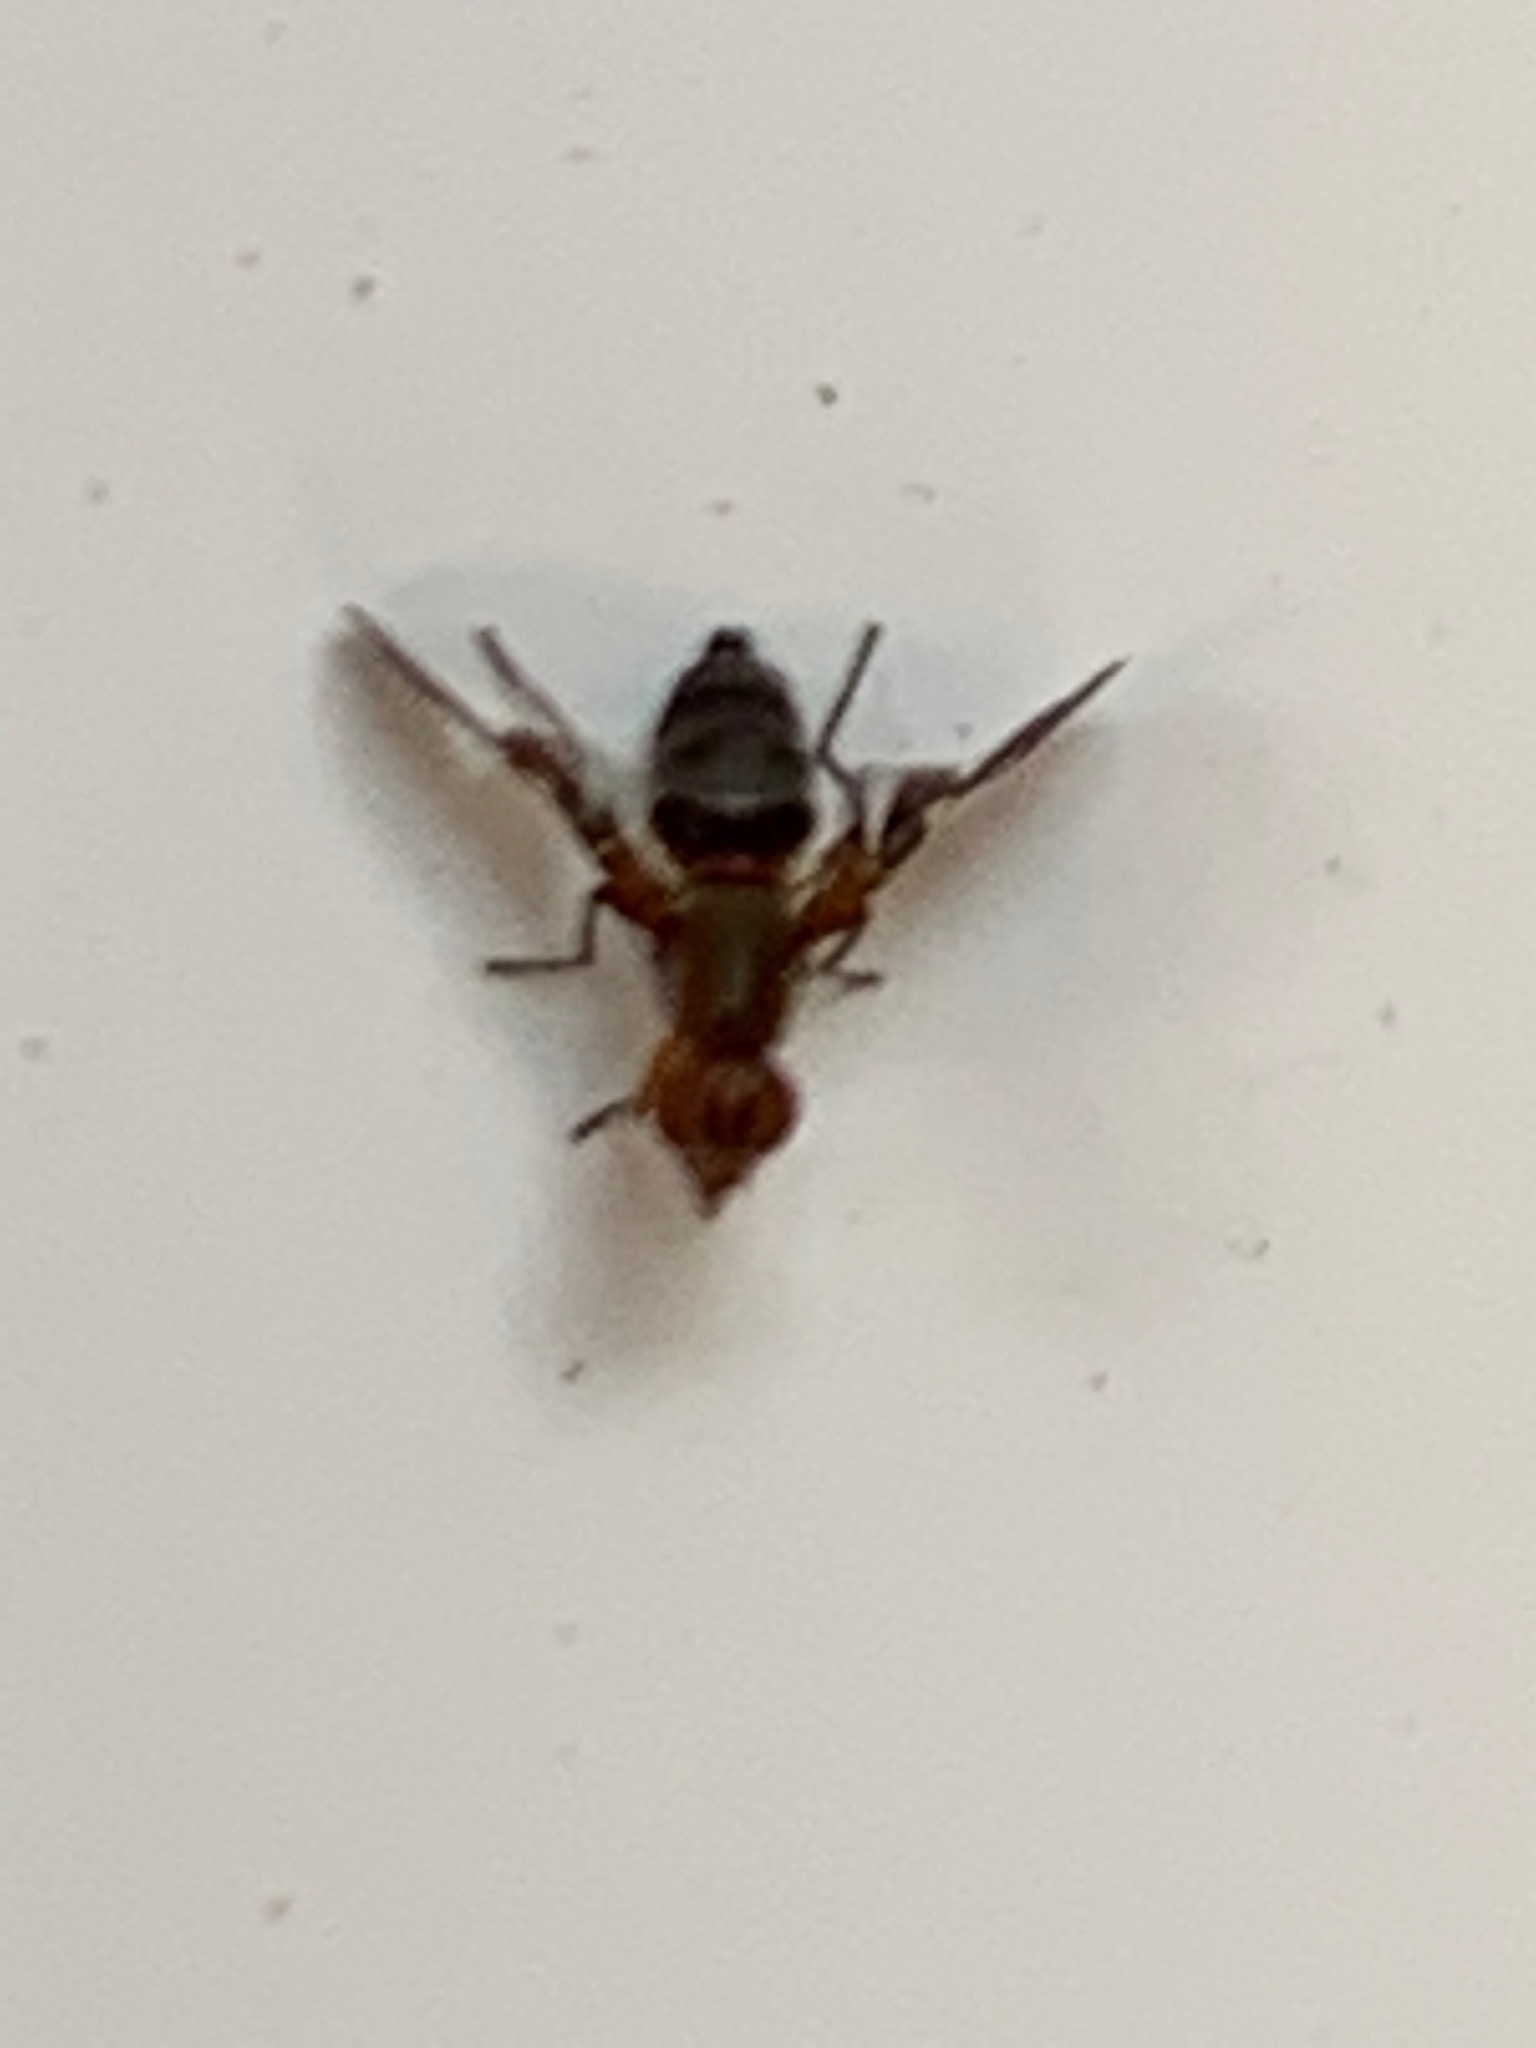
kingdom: Animalia
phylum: Arthropoda
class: Insecta
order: Diptera
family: Ulidiidae
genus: Delphinia
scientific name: Delphinia picta
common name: Common picture-winged fly
